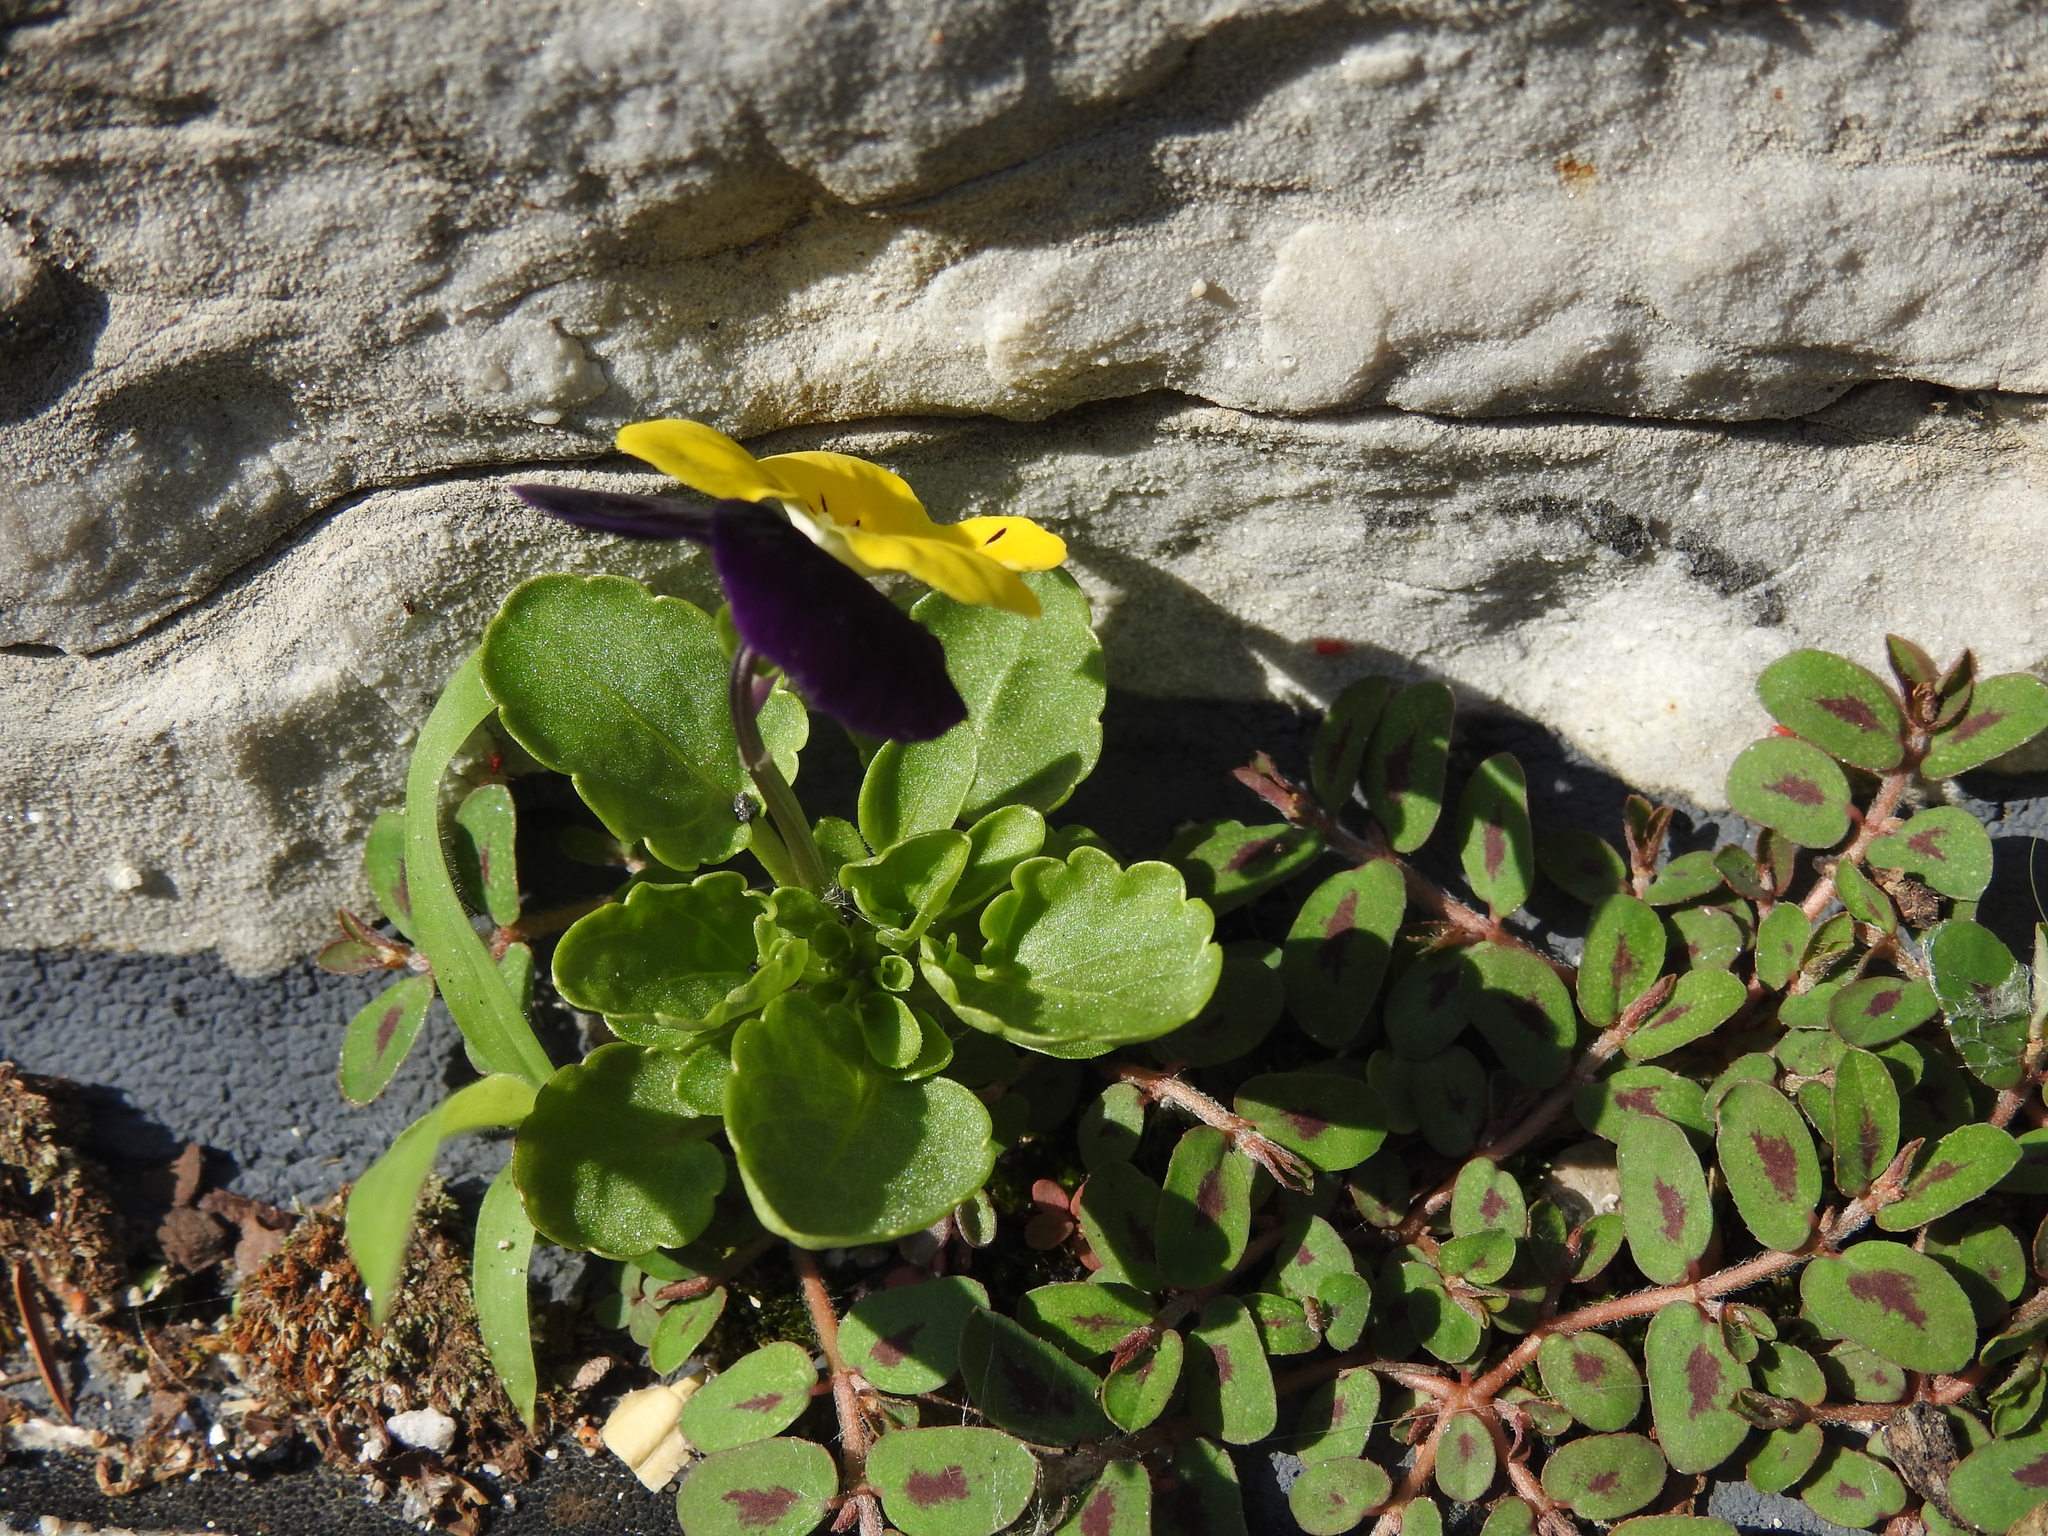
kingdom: Plantae
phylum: Tracheophyta
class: Magnoliopsida
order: Malpighiales
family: Violaceae
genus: Viola
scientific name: Viola williamsii
